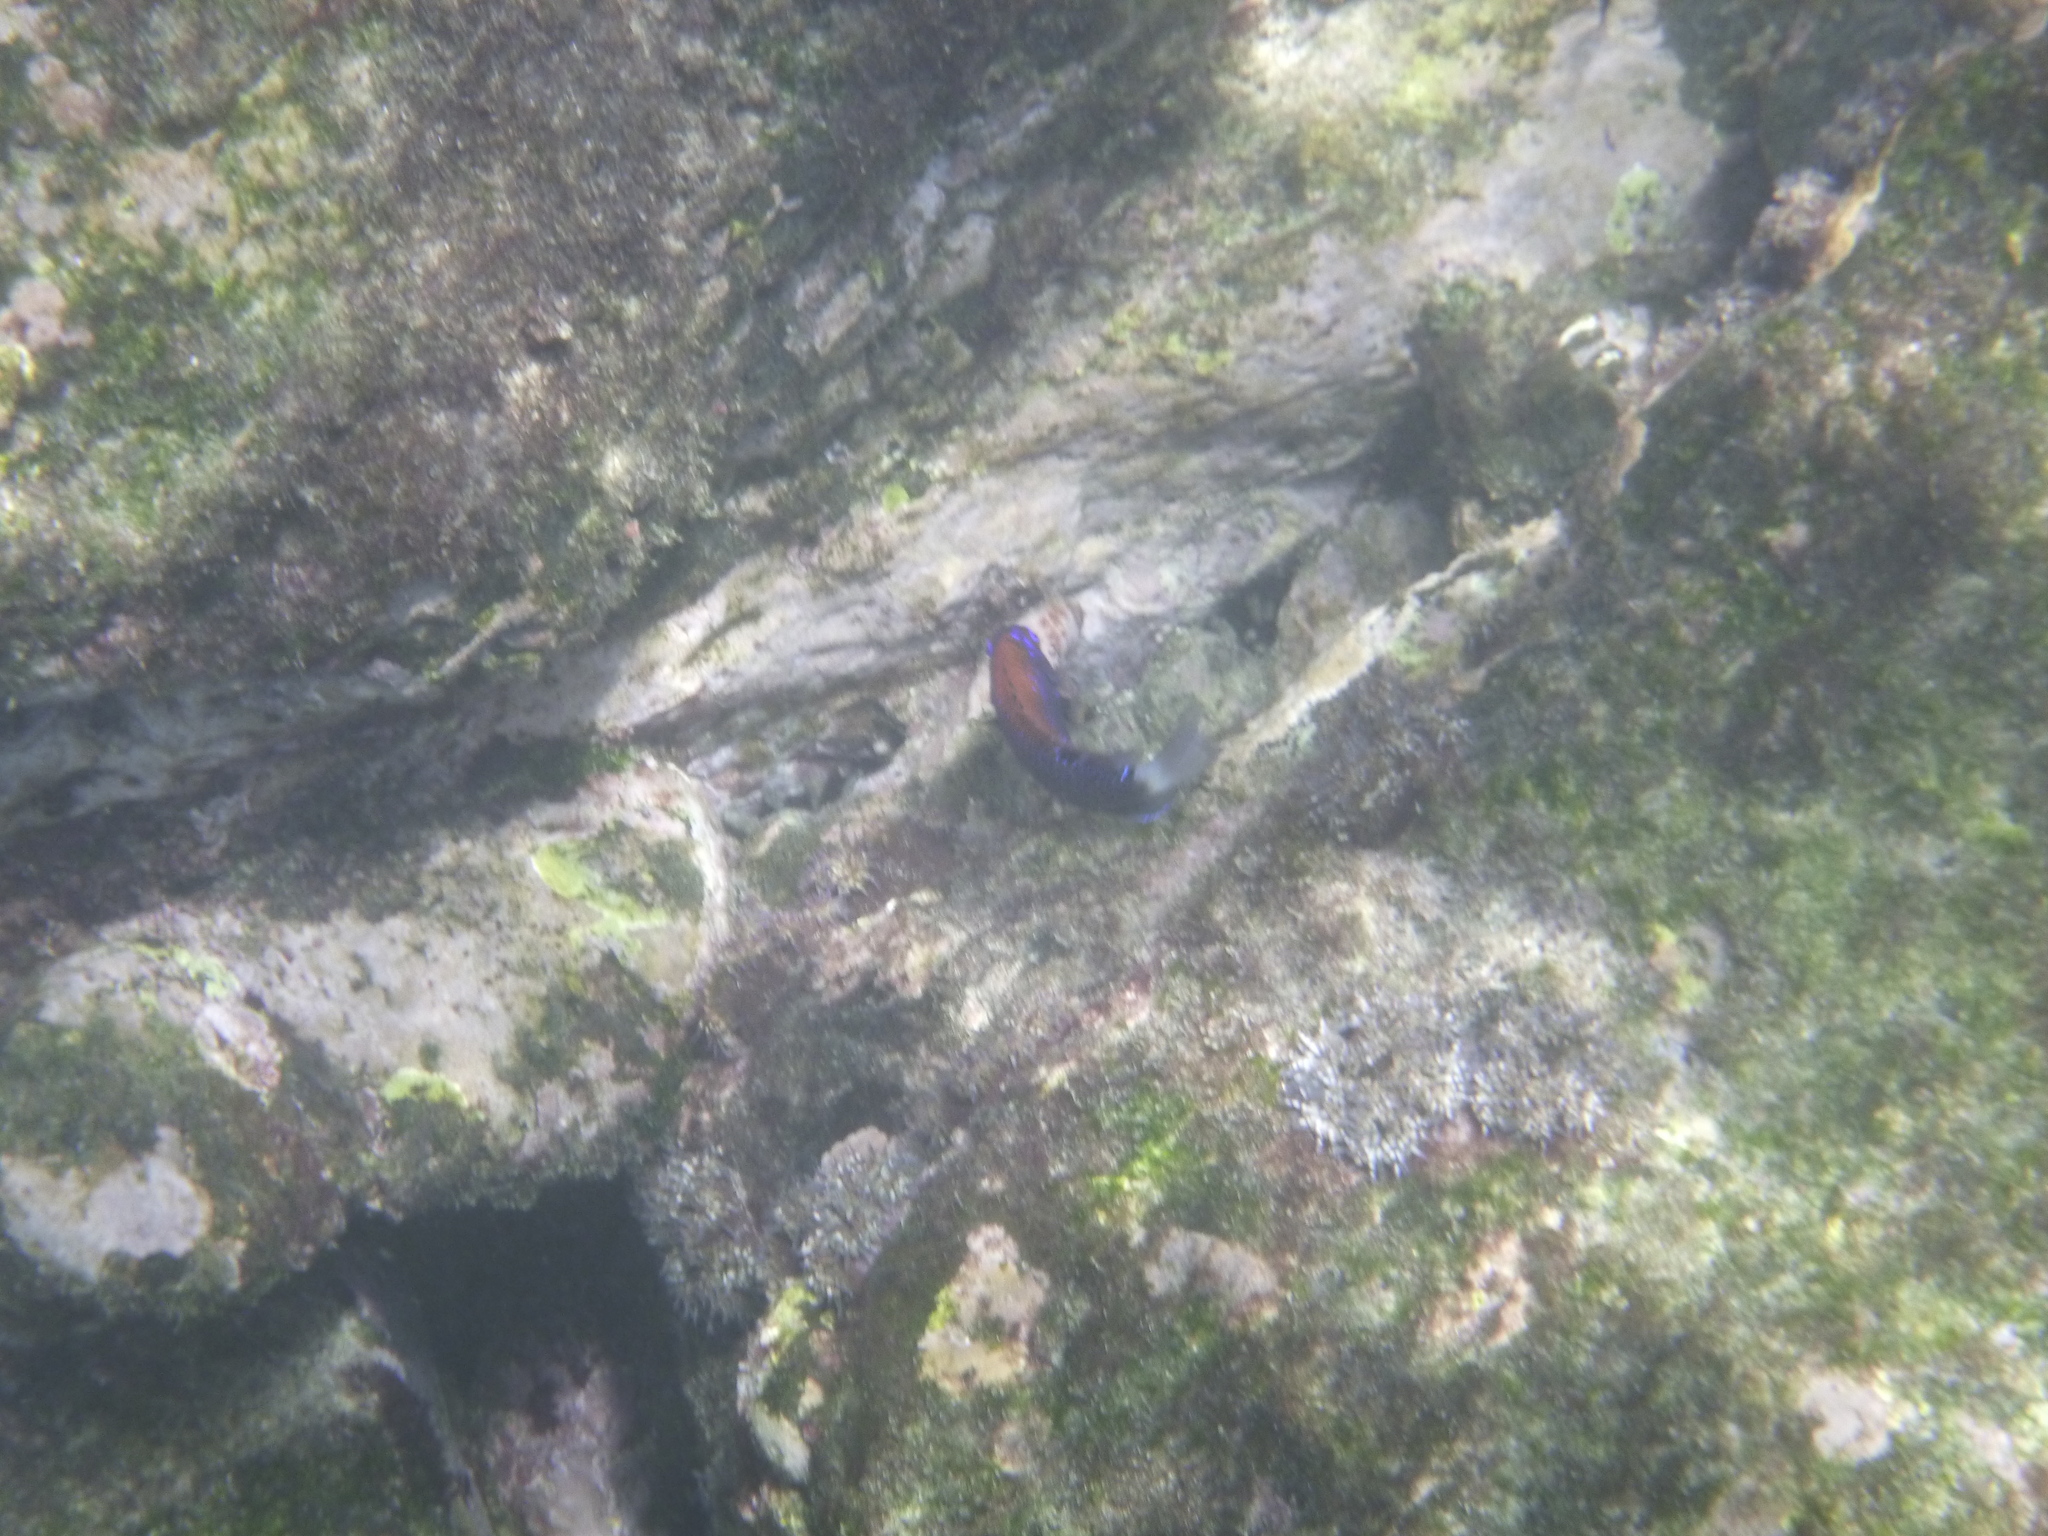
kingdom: Animalia
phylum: Chordata
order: Perciformes
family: Pomacentridae
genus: Stegastes
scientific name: Stegastes beebei
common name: Galapagos ringtail damselfish
